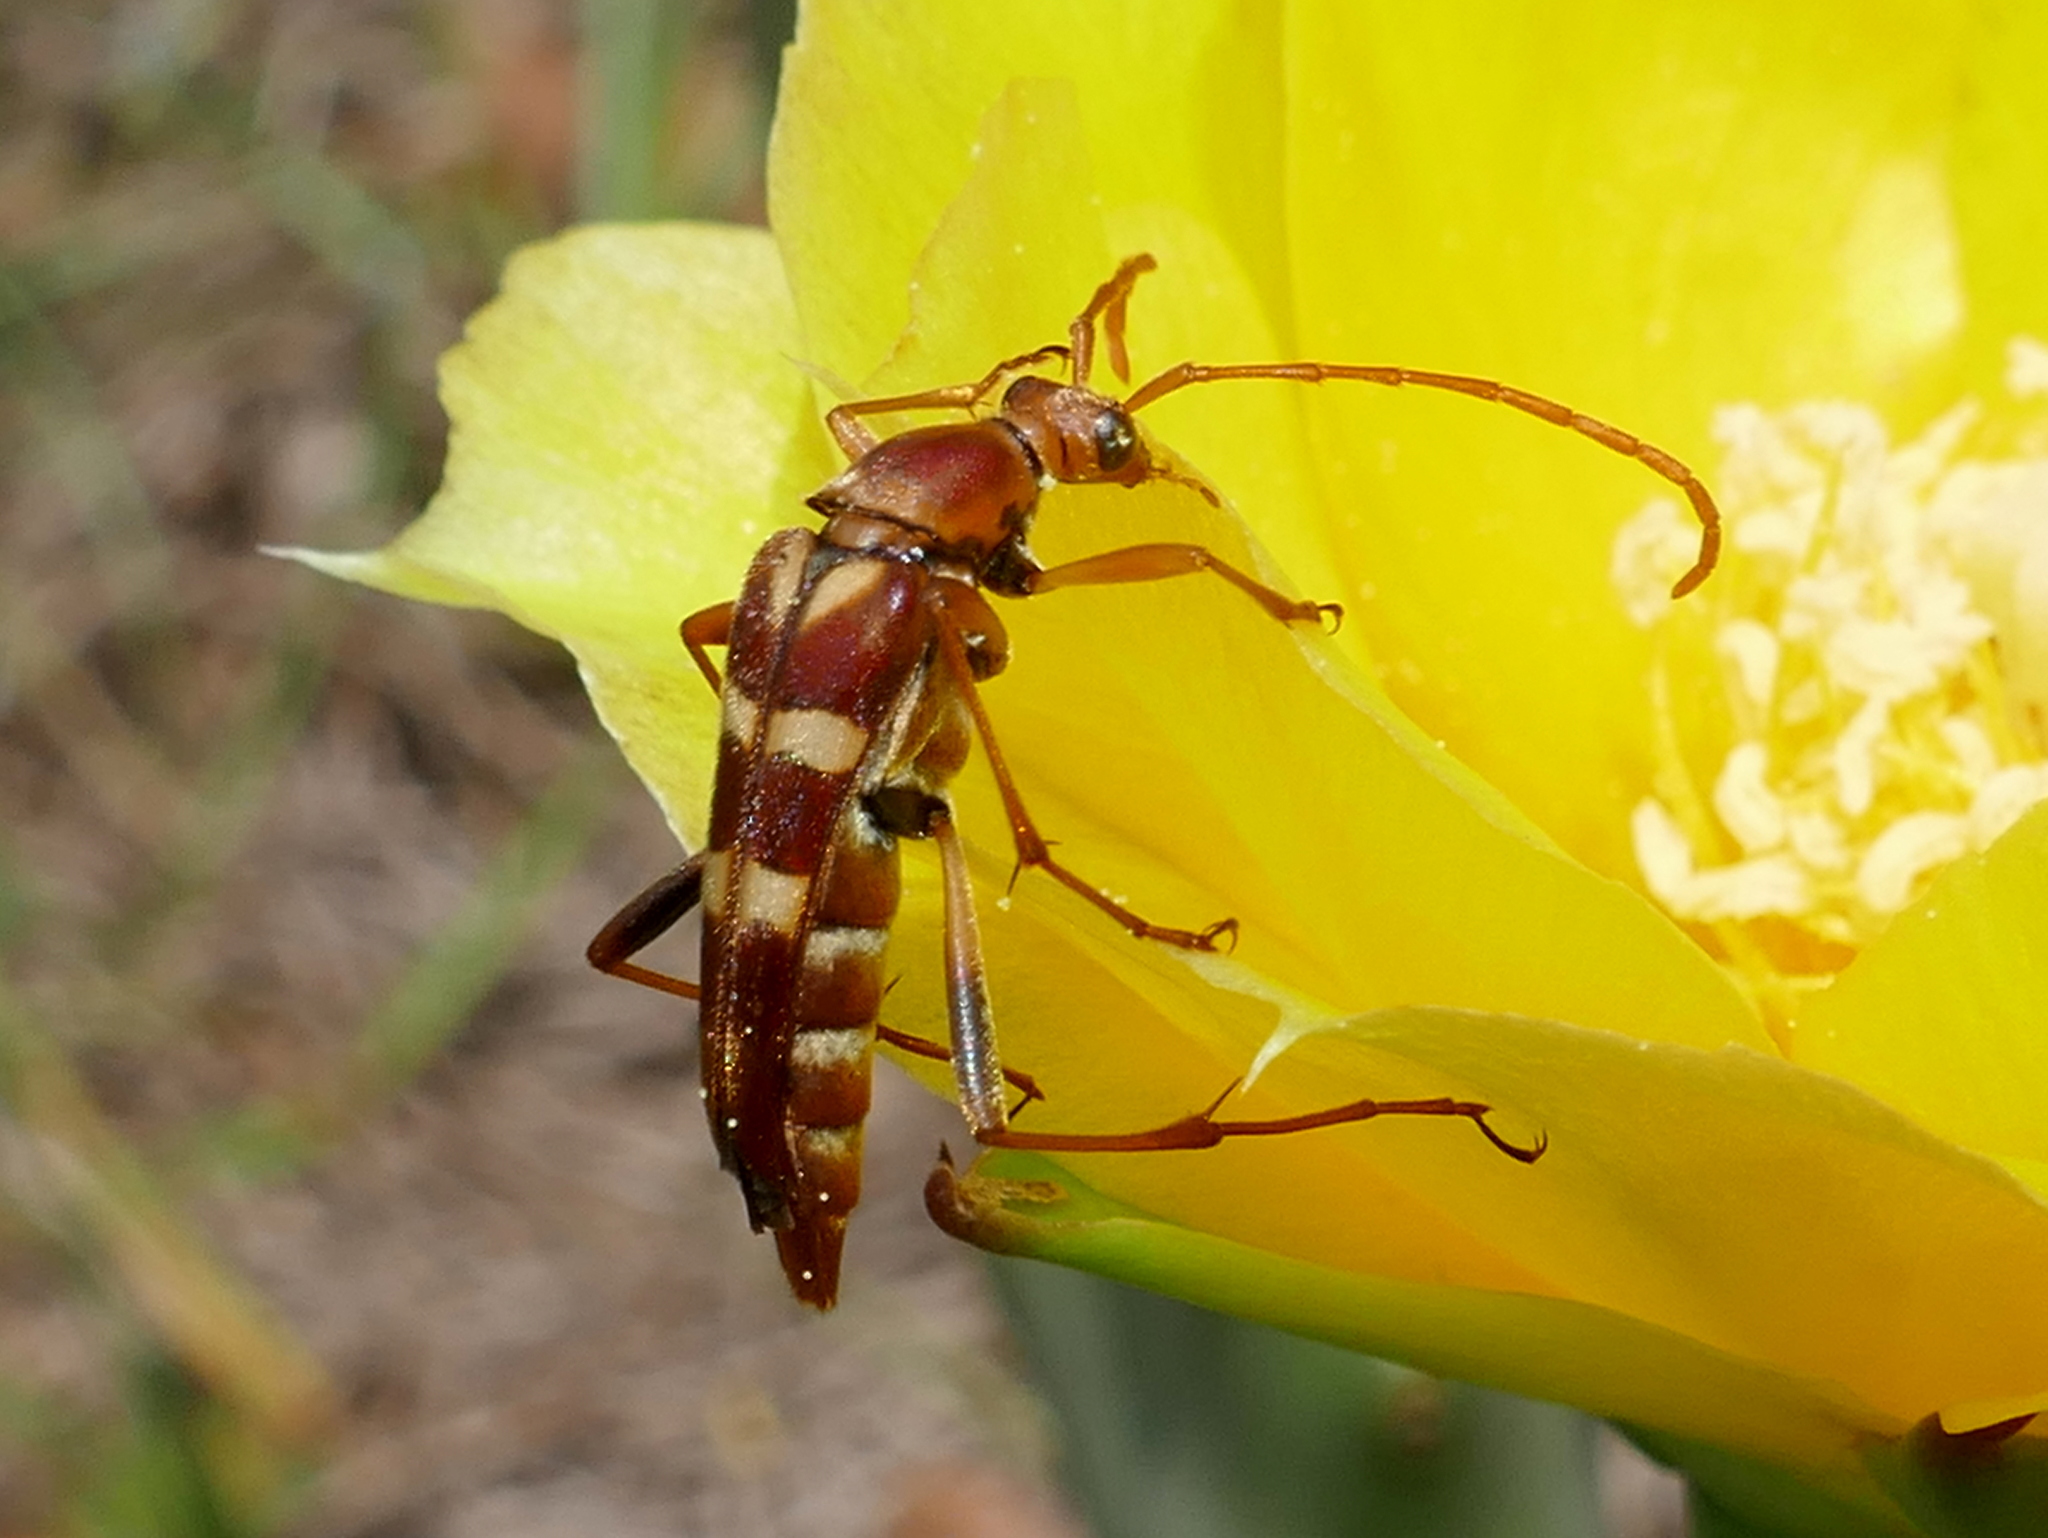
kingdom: Animalia
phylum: Arthropoda
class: Insecta
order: Coleoptera
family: Cerambycidae
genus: Strangalia
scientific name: Strangalia strigosa
